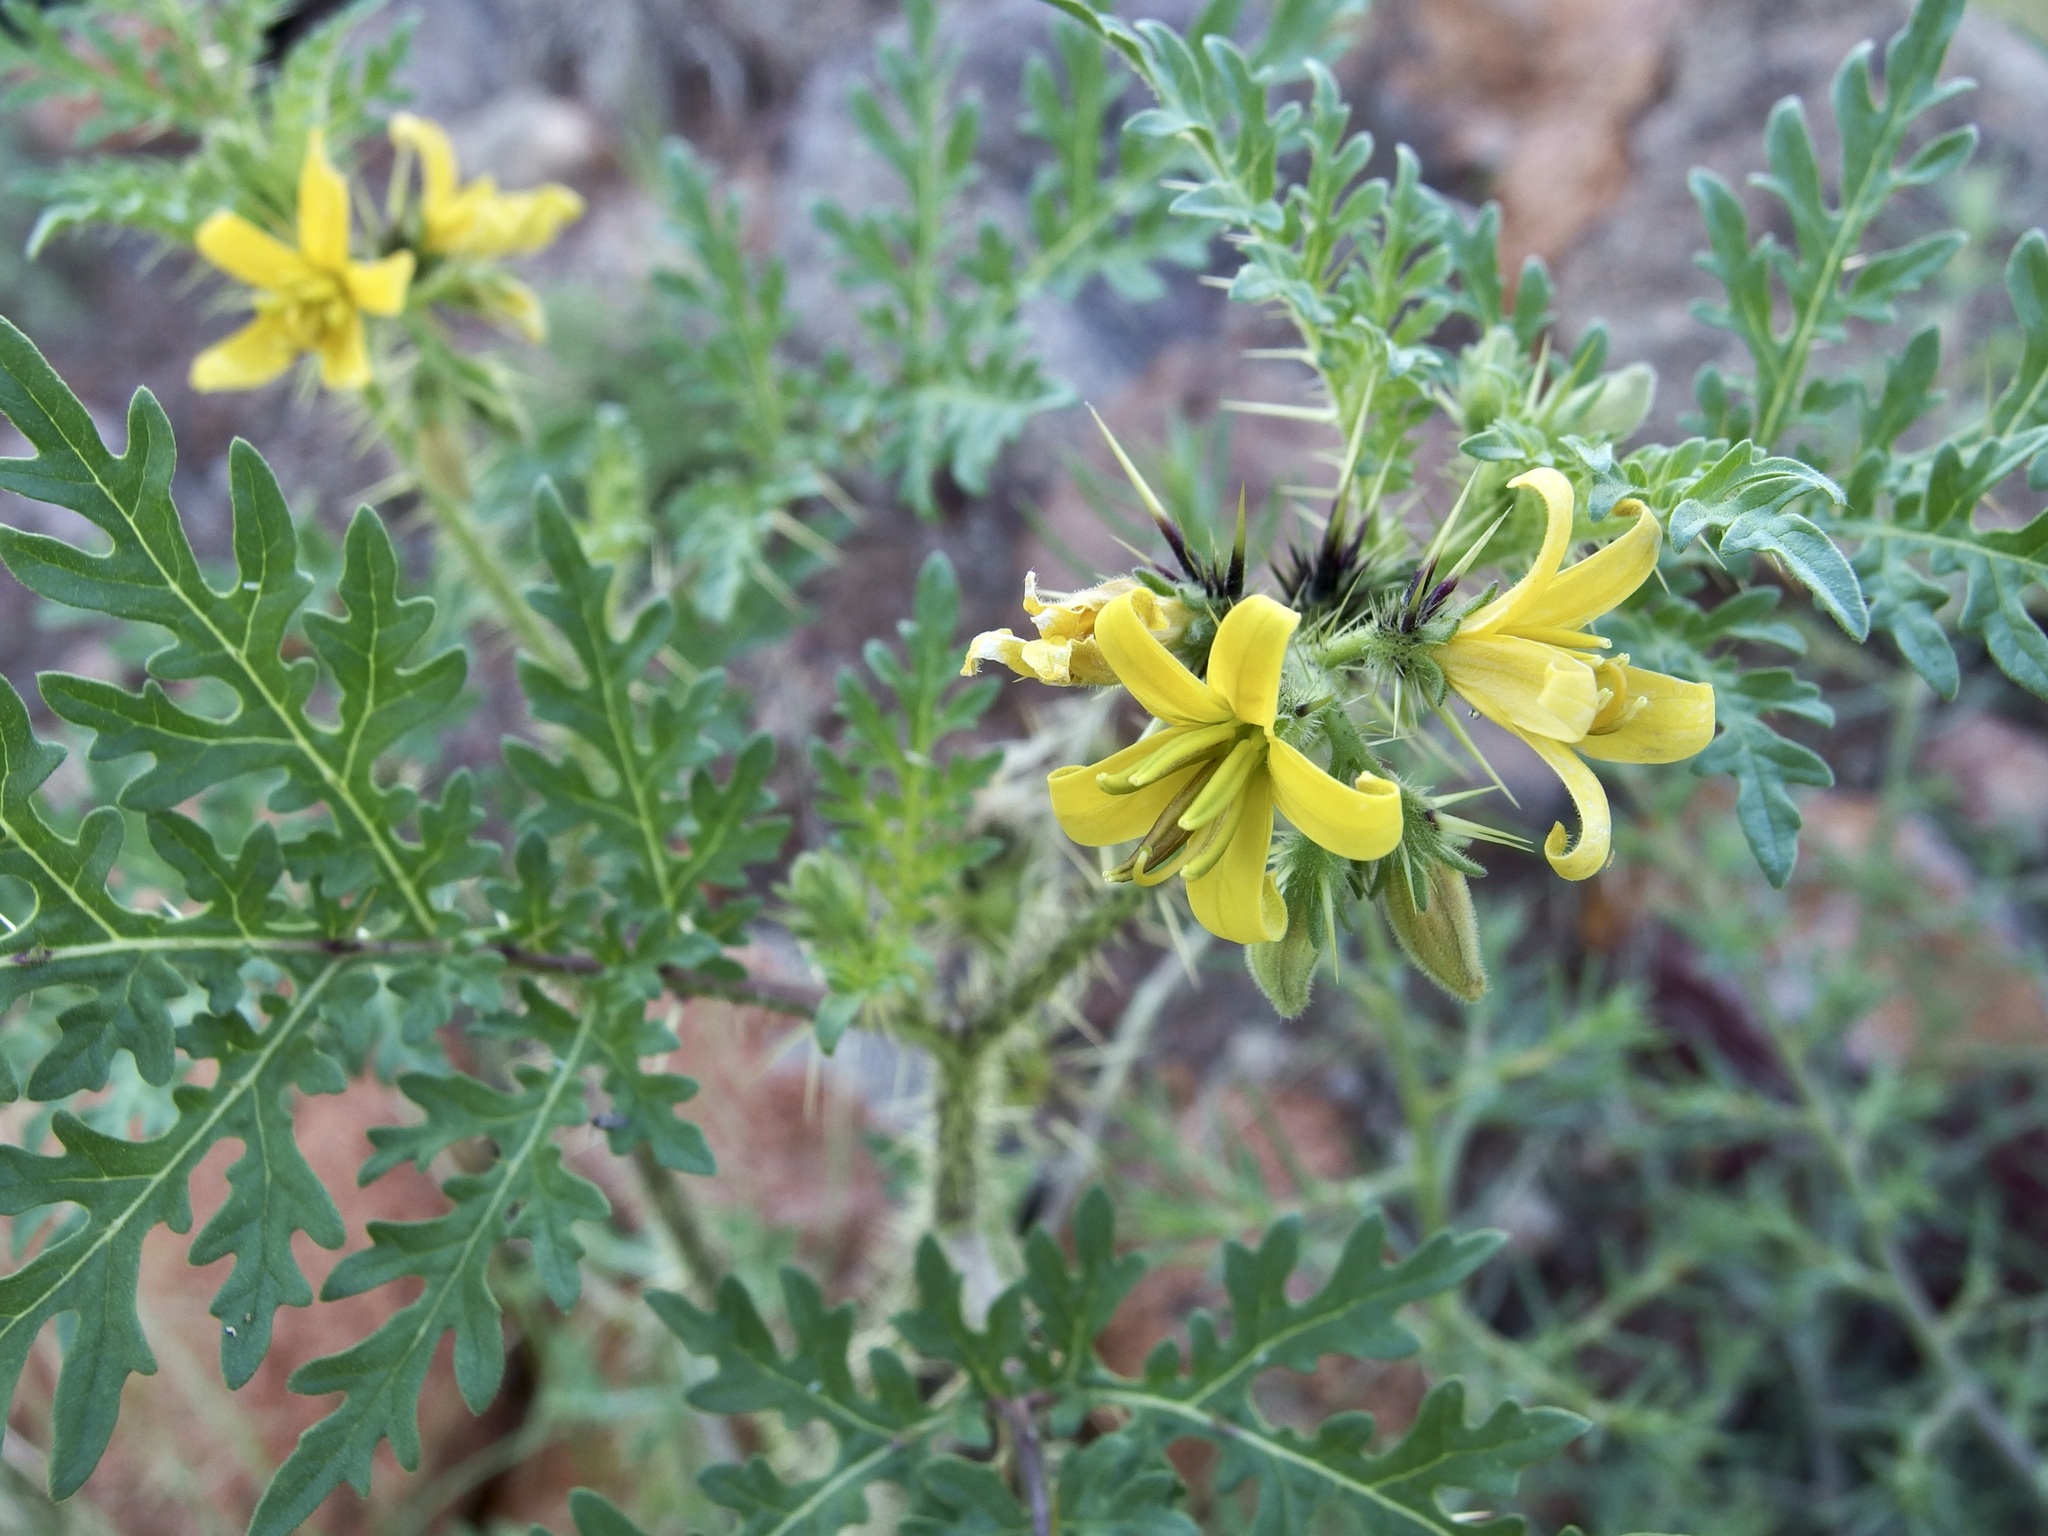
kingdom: Plantae
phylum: Tracheophyta
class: Magnoliopsida
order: Solanales
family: Solanaceae
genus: Solanum
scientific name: Solanum lumholtzianum
